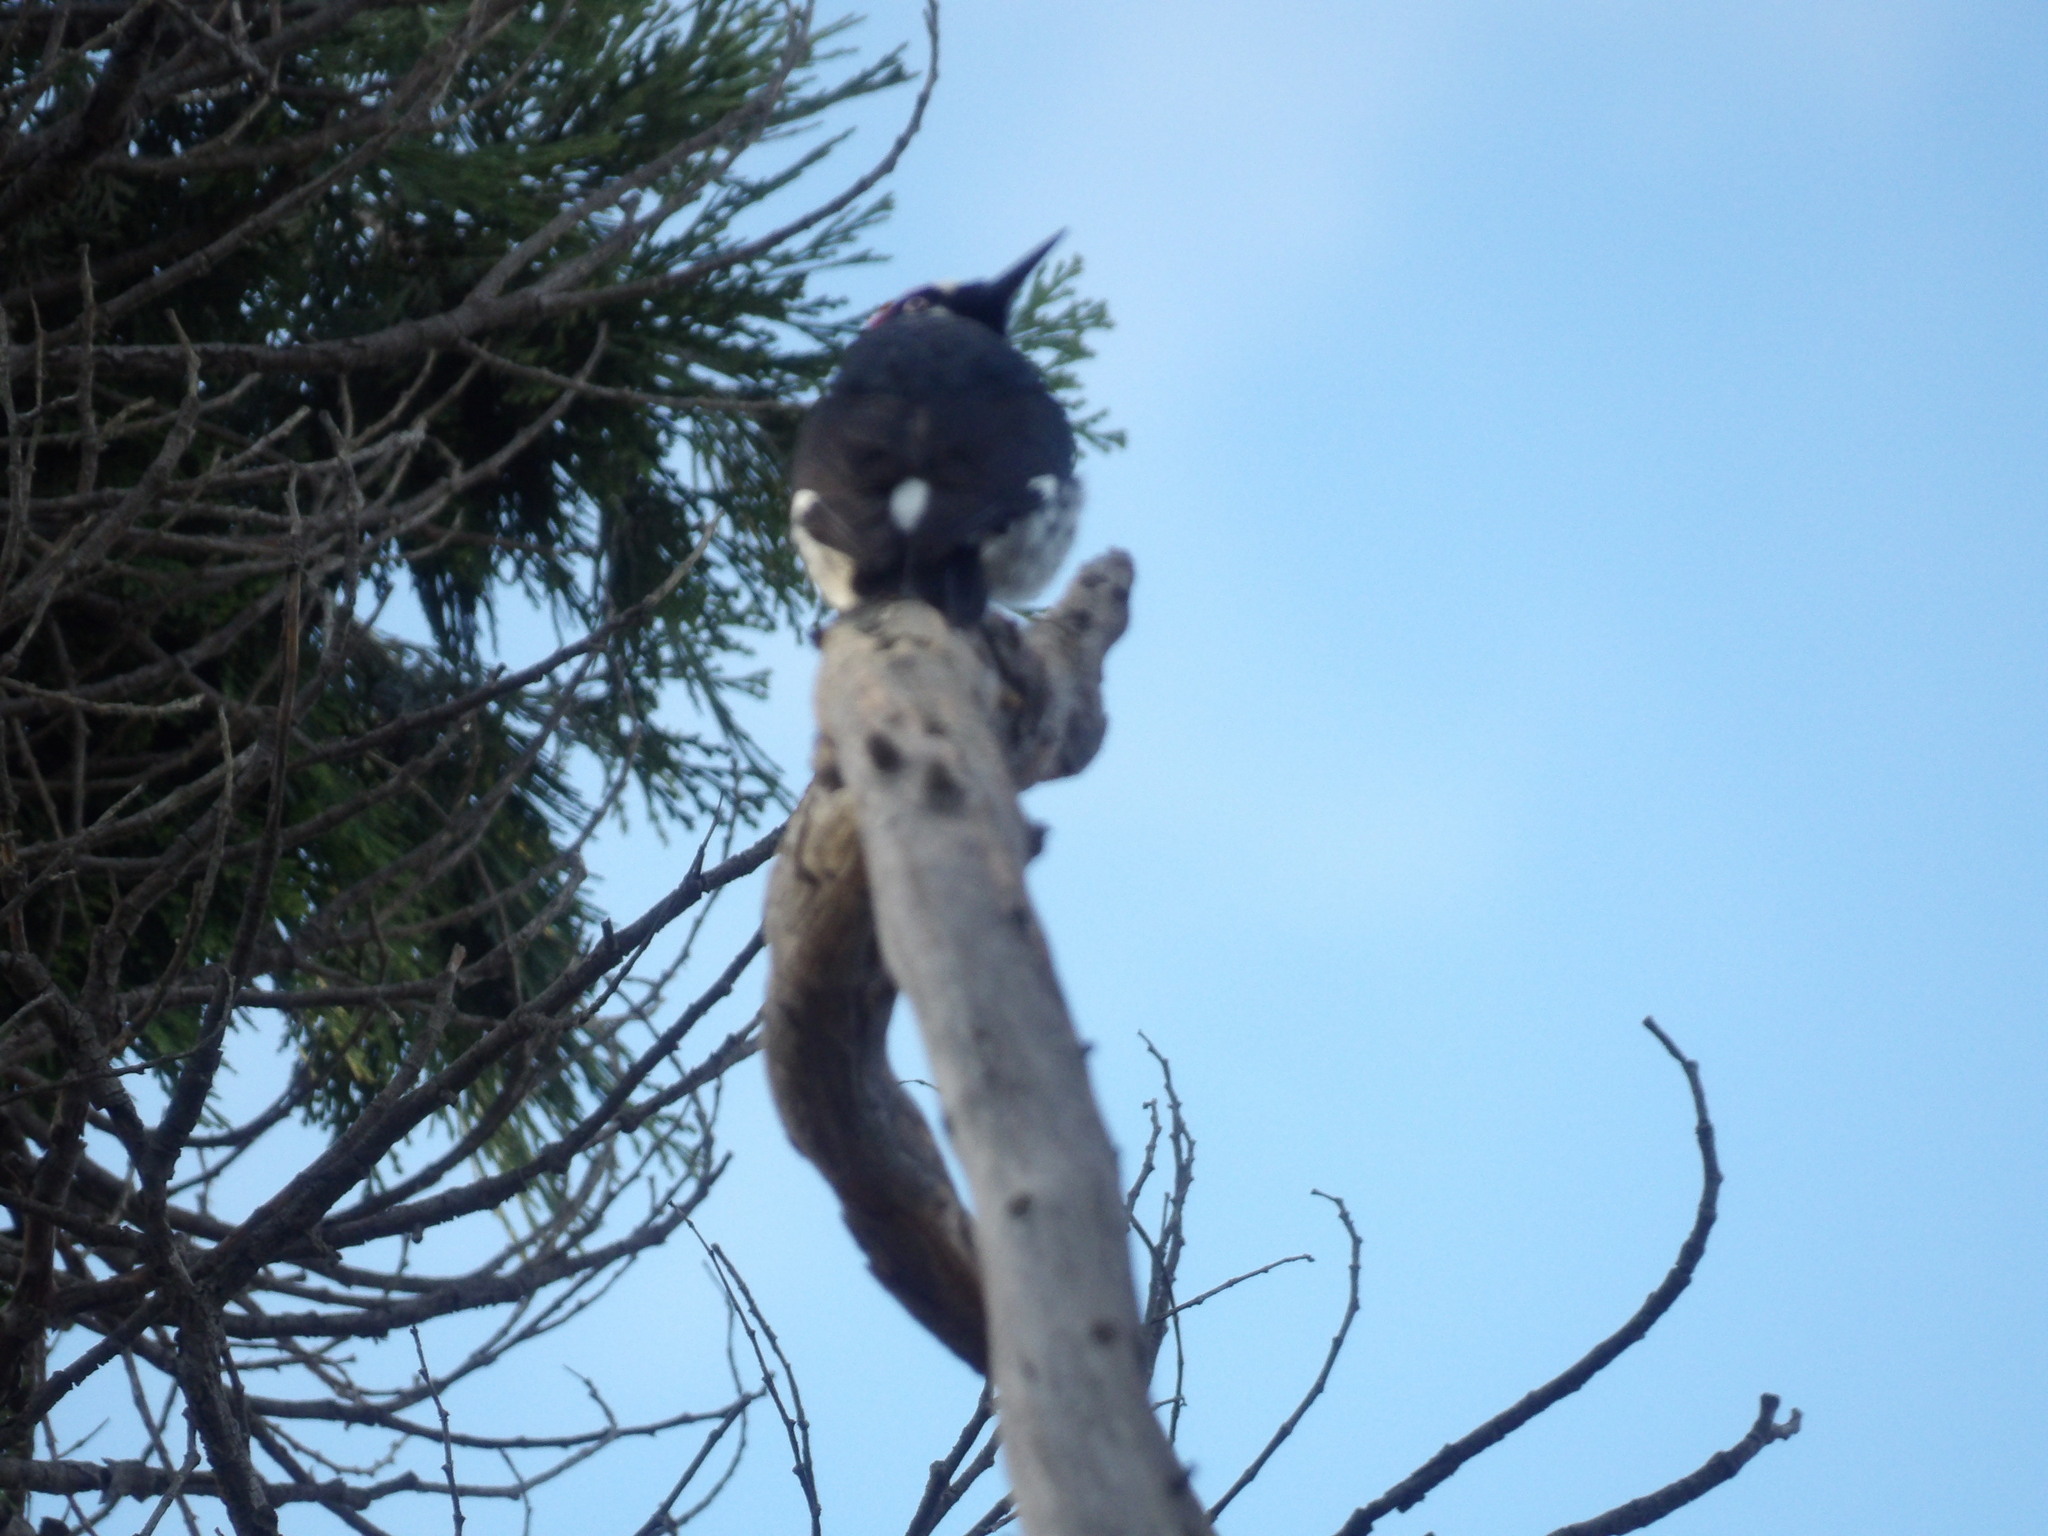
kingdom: Animalia
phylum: Chordata
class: Aves
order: Piciformes
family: Picidae
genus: Melanerpes
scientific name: Melanerpes formicivorus
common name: Acorn woodpecker
